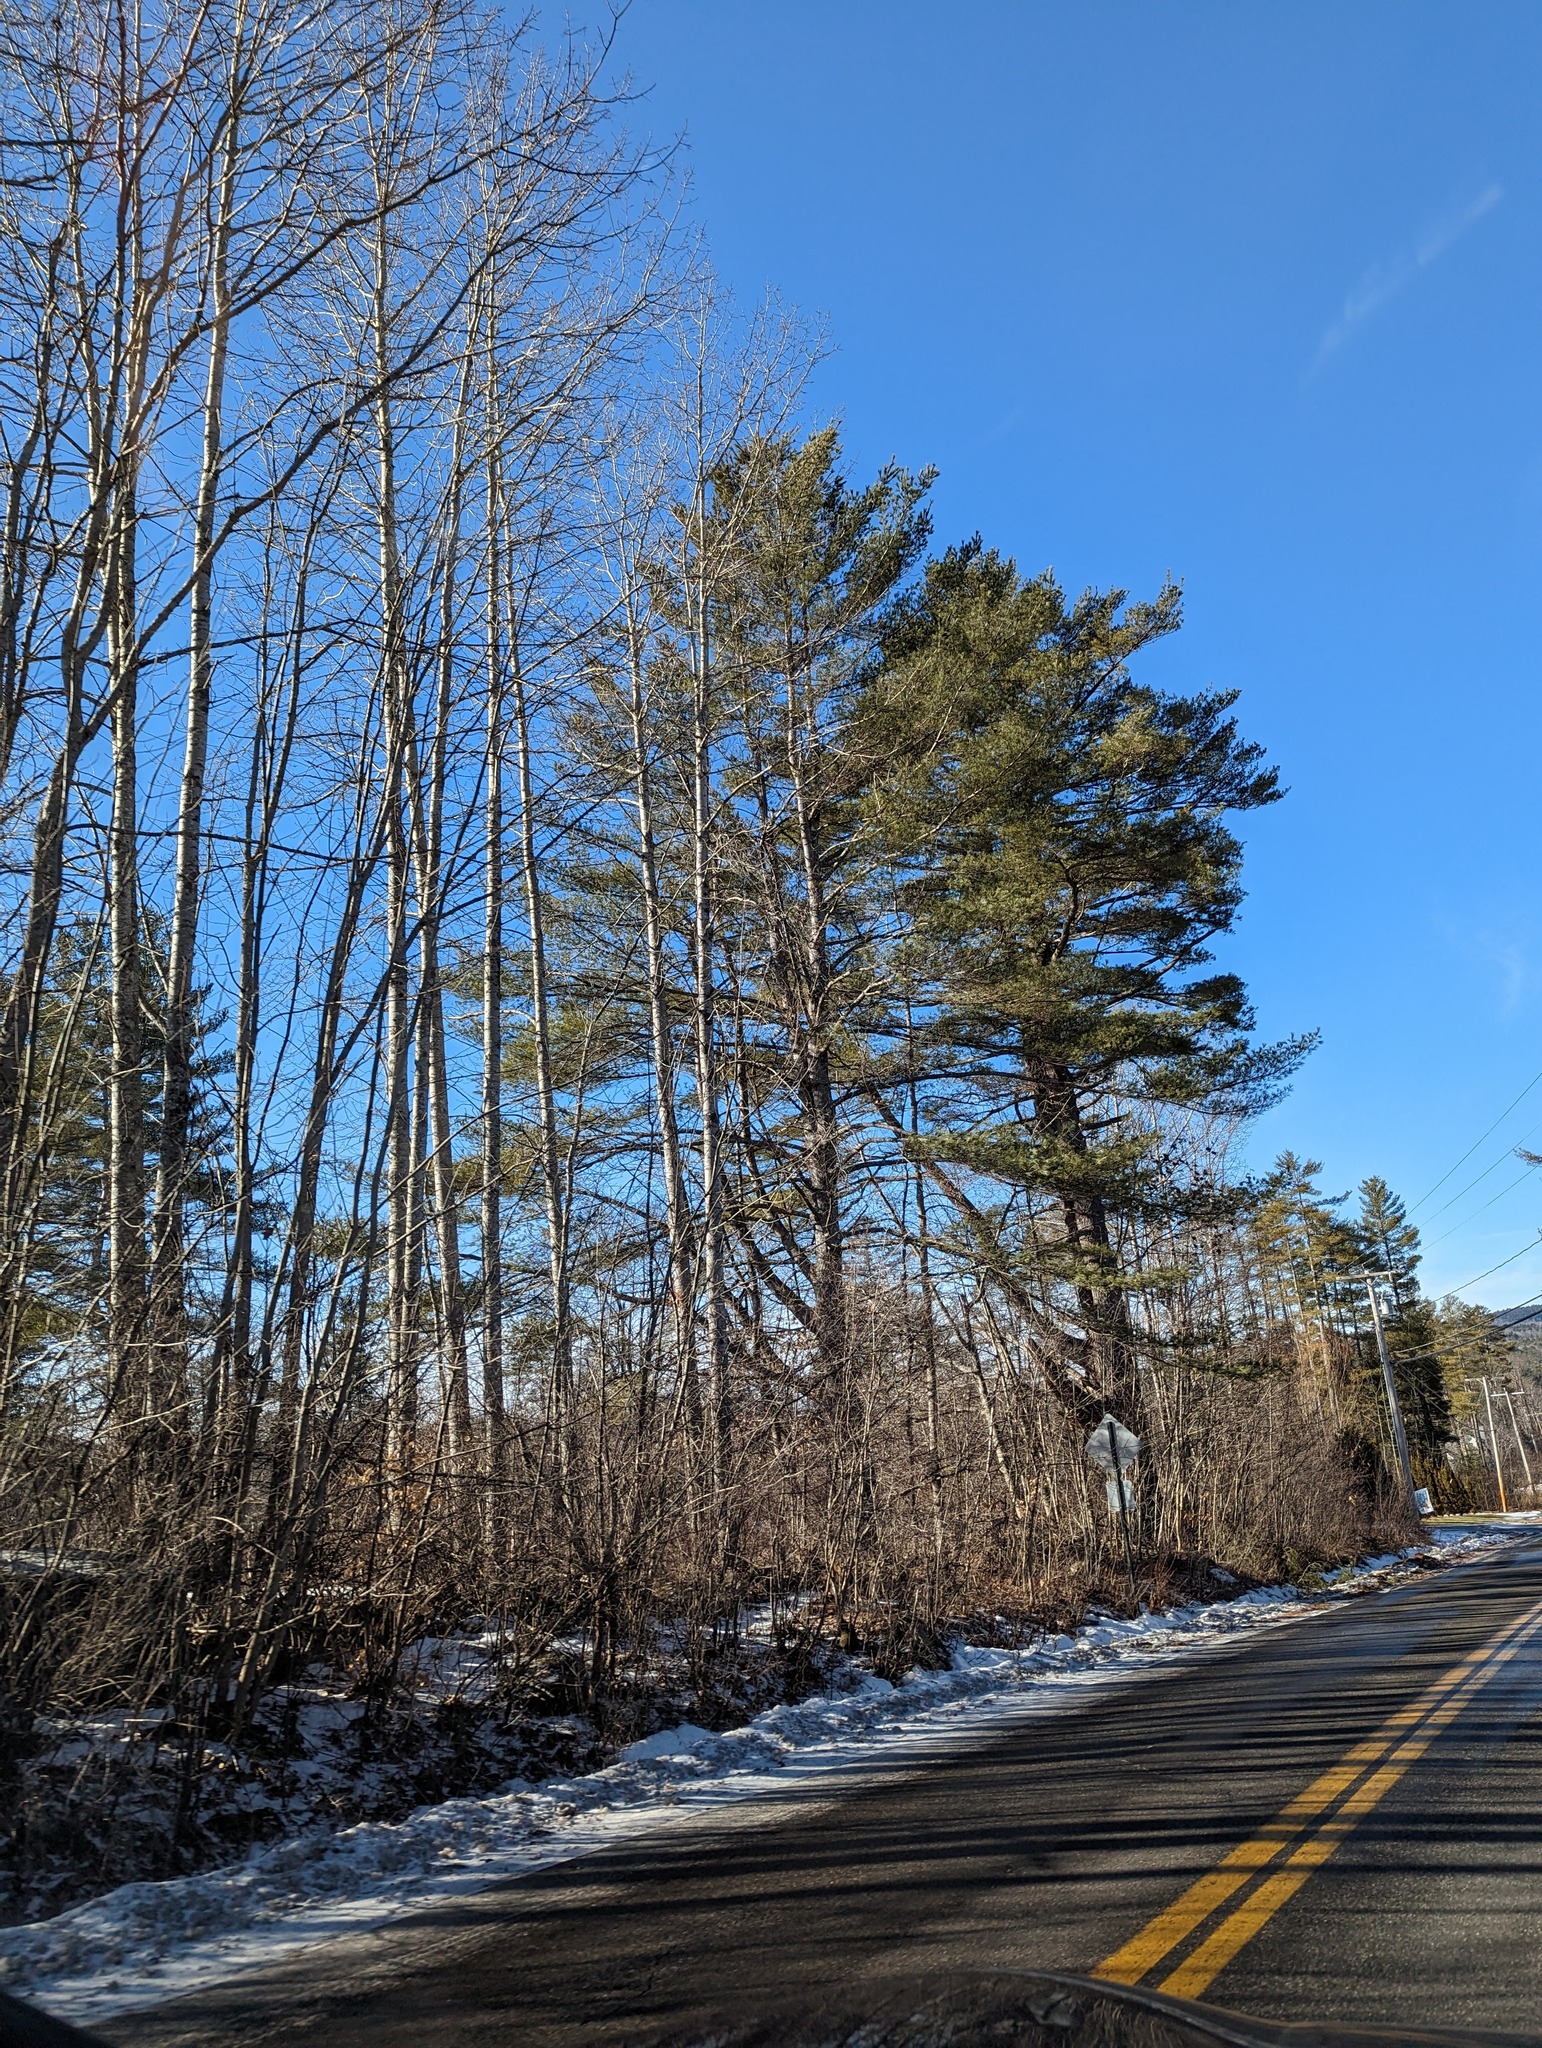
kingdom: Plantae
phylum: Tracheophyta
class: Pinopsida
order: Pinales
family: Pinaceae
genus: Pinus
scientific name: Pinus strobus
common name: Weymouth pine
